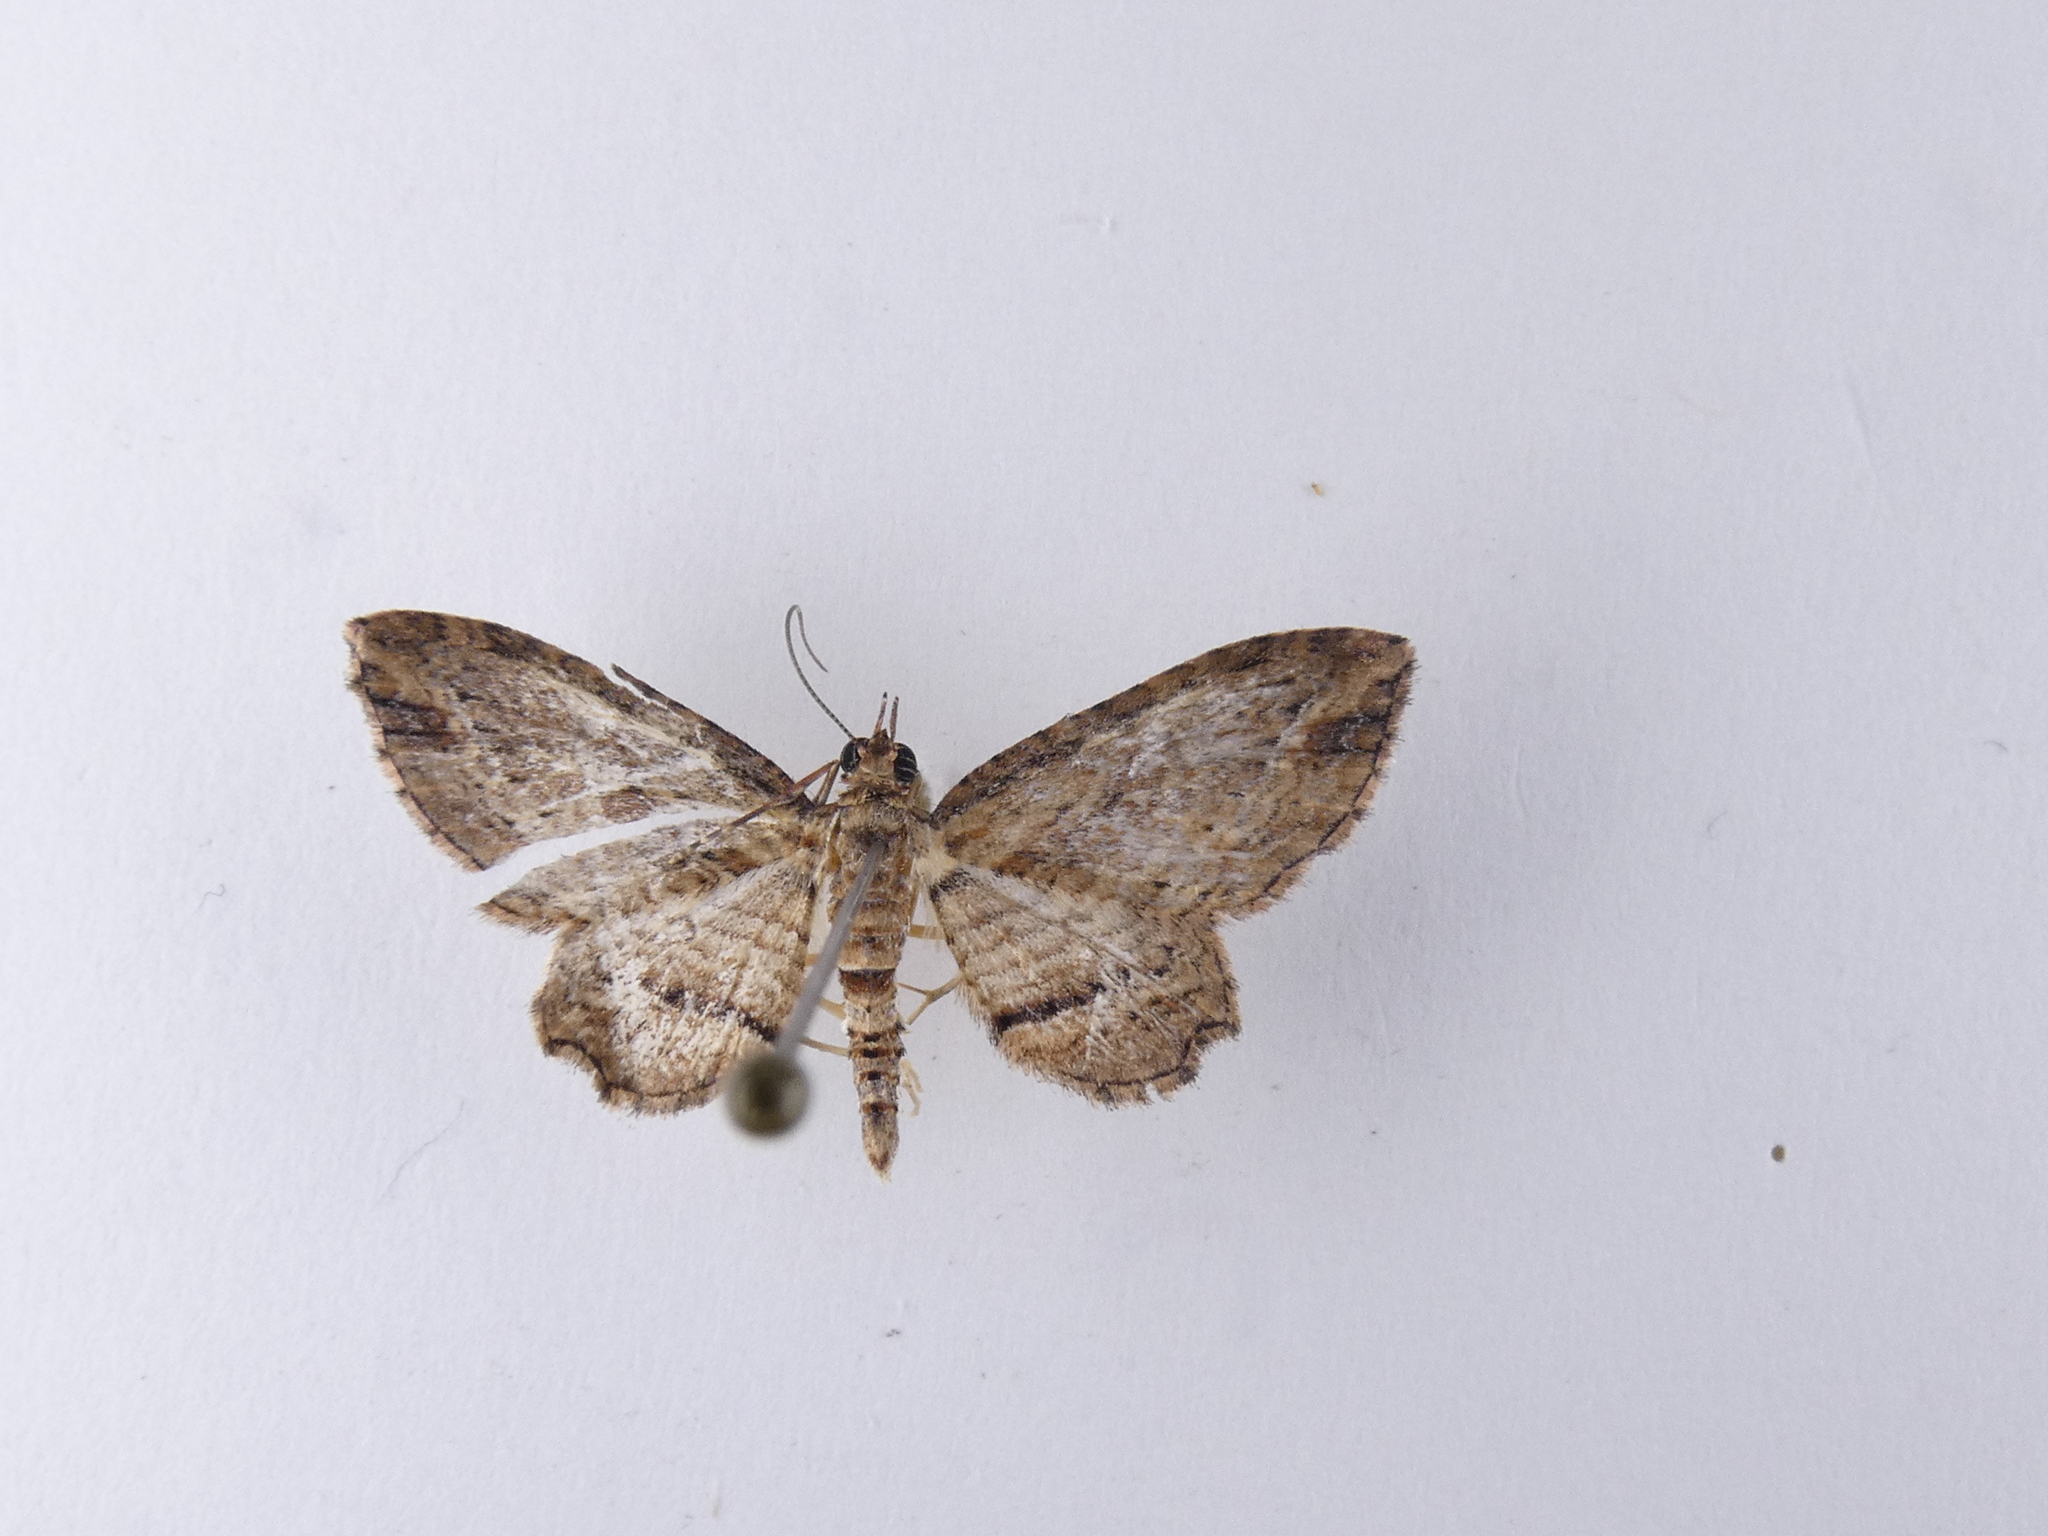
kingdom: Animalia
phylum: Arthropoda
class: Insecta
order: Lepidoptera
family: Geometridae
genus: Chloroclystis
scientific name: Chloroclystis filata
